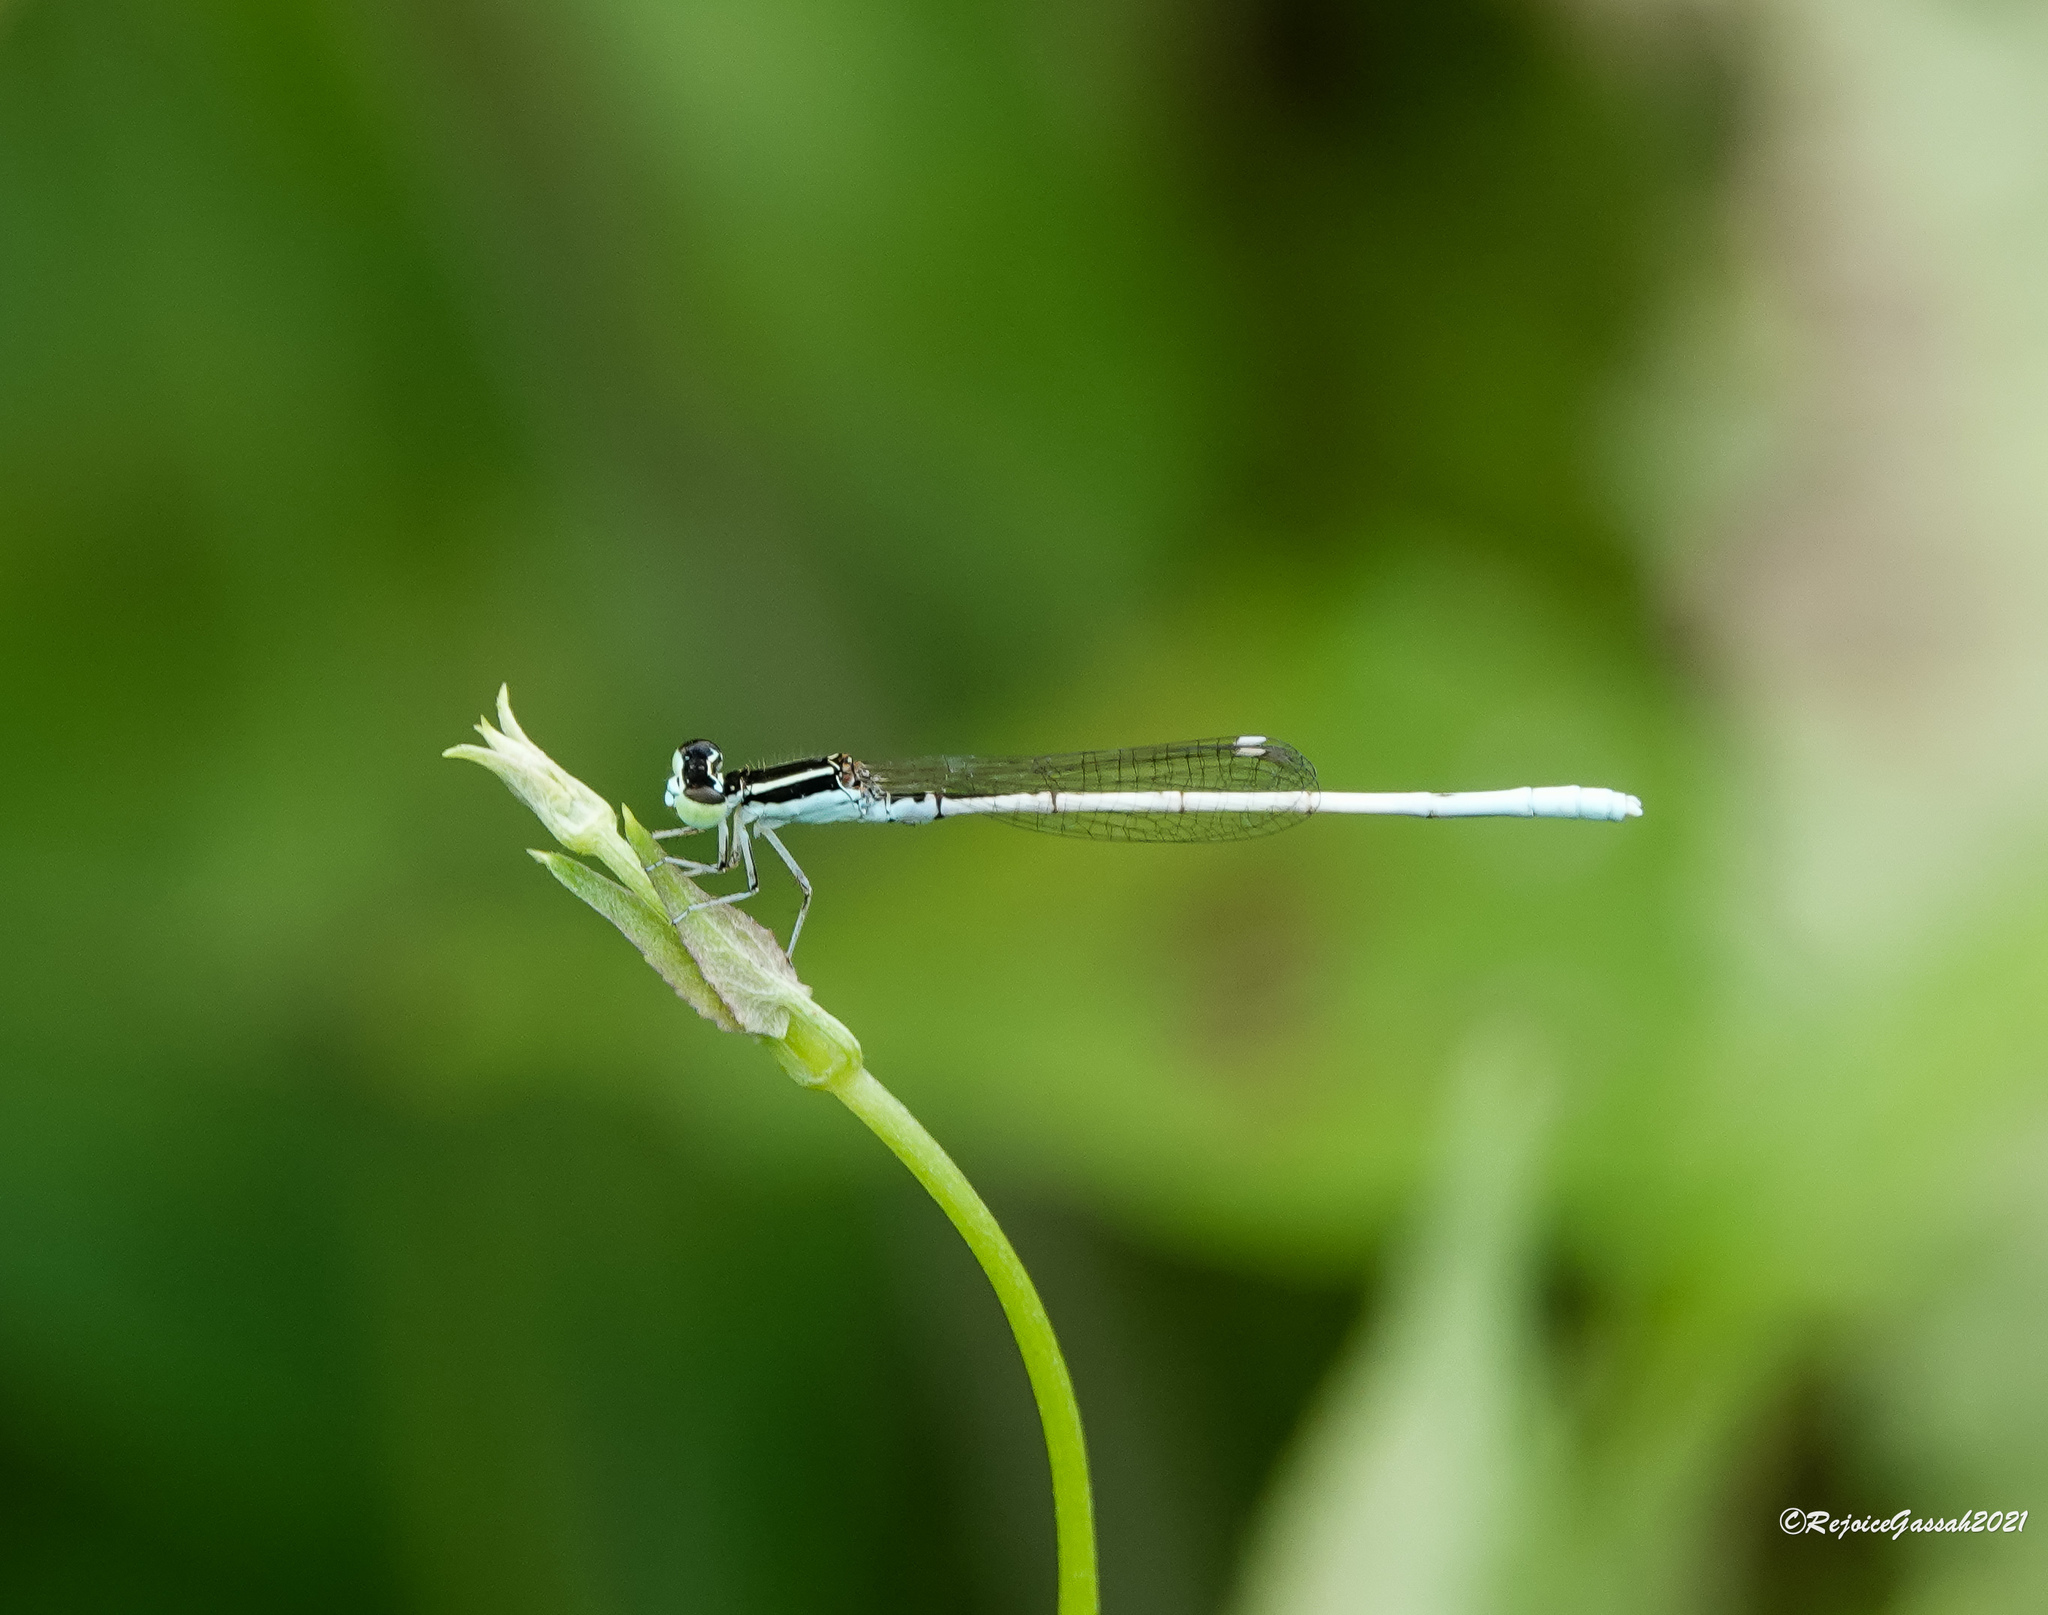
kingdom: Animalia
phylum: Arthropoda
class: Insecta
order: Odonata
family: Coenagrionidae
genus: Agriocnemis
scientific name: Agriocnemis lacteola
